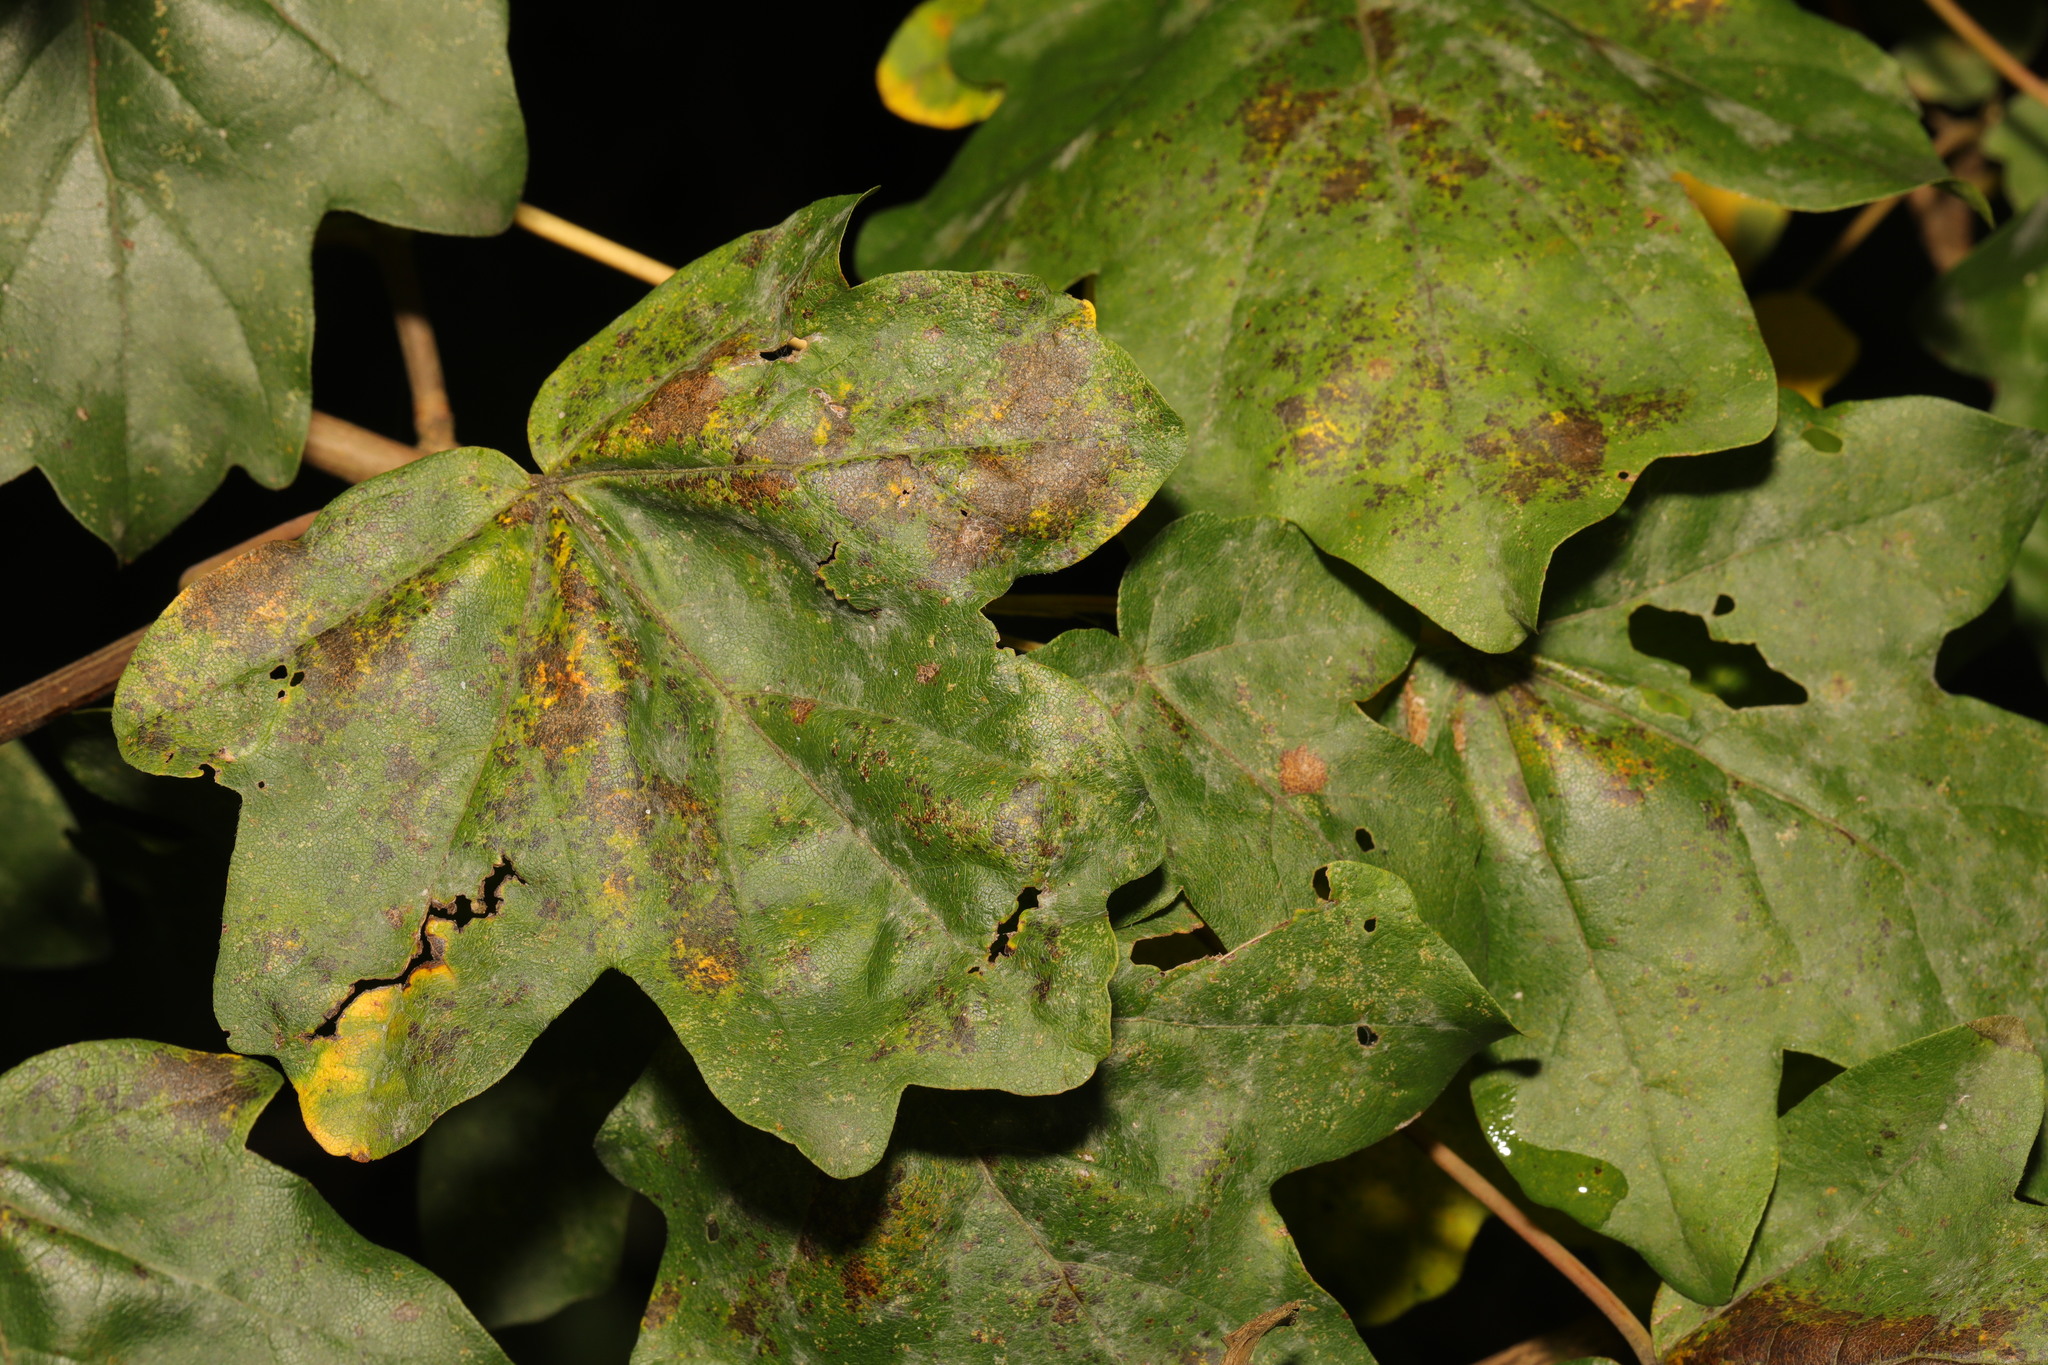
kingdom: Plantae
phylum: Tracheophyta
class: Magnoliopsida
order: Sapindales
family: Sapindaceae
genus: Acer
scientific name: Acer campestre
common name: Field maple
